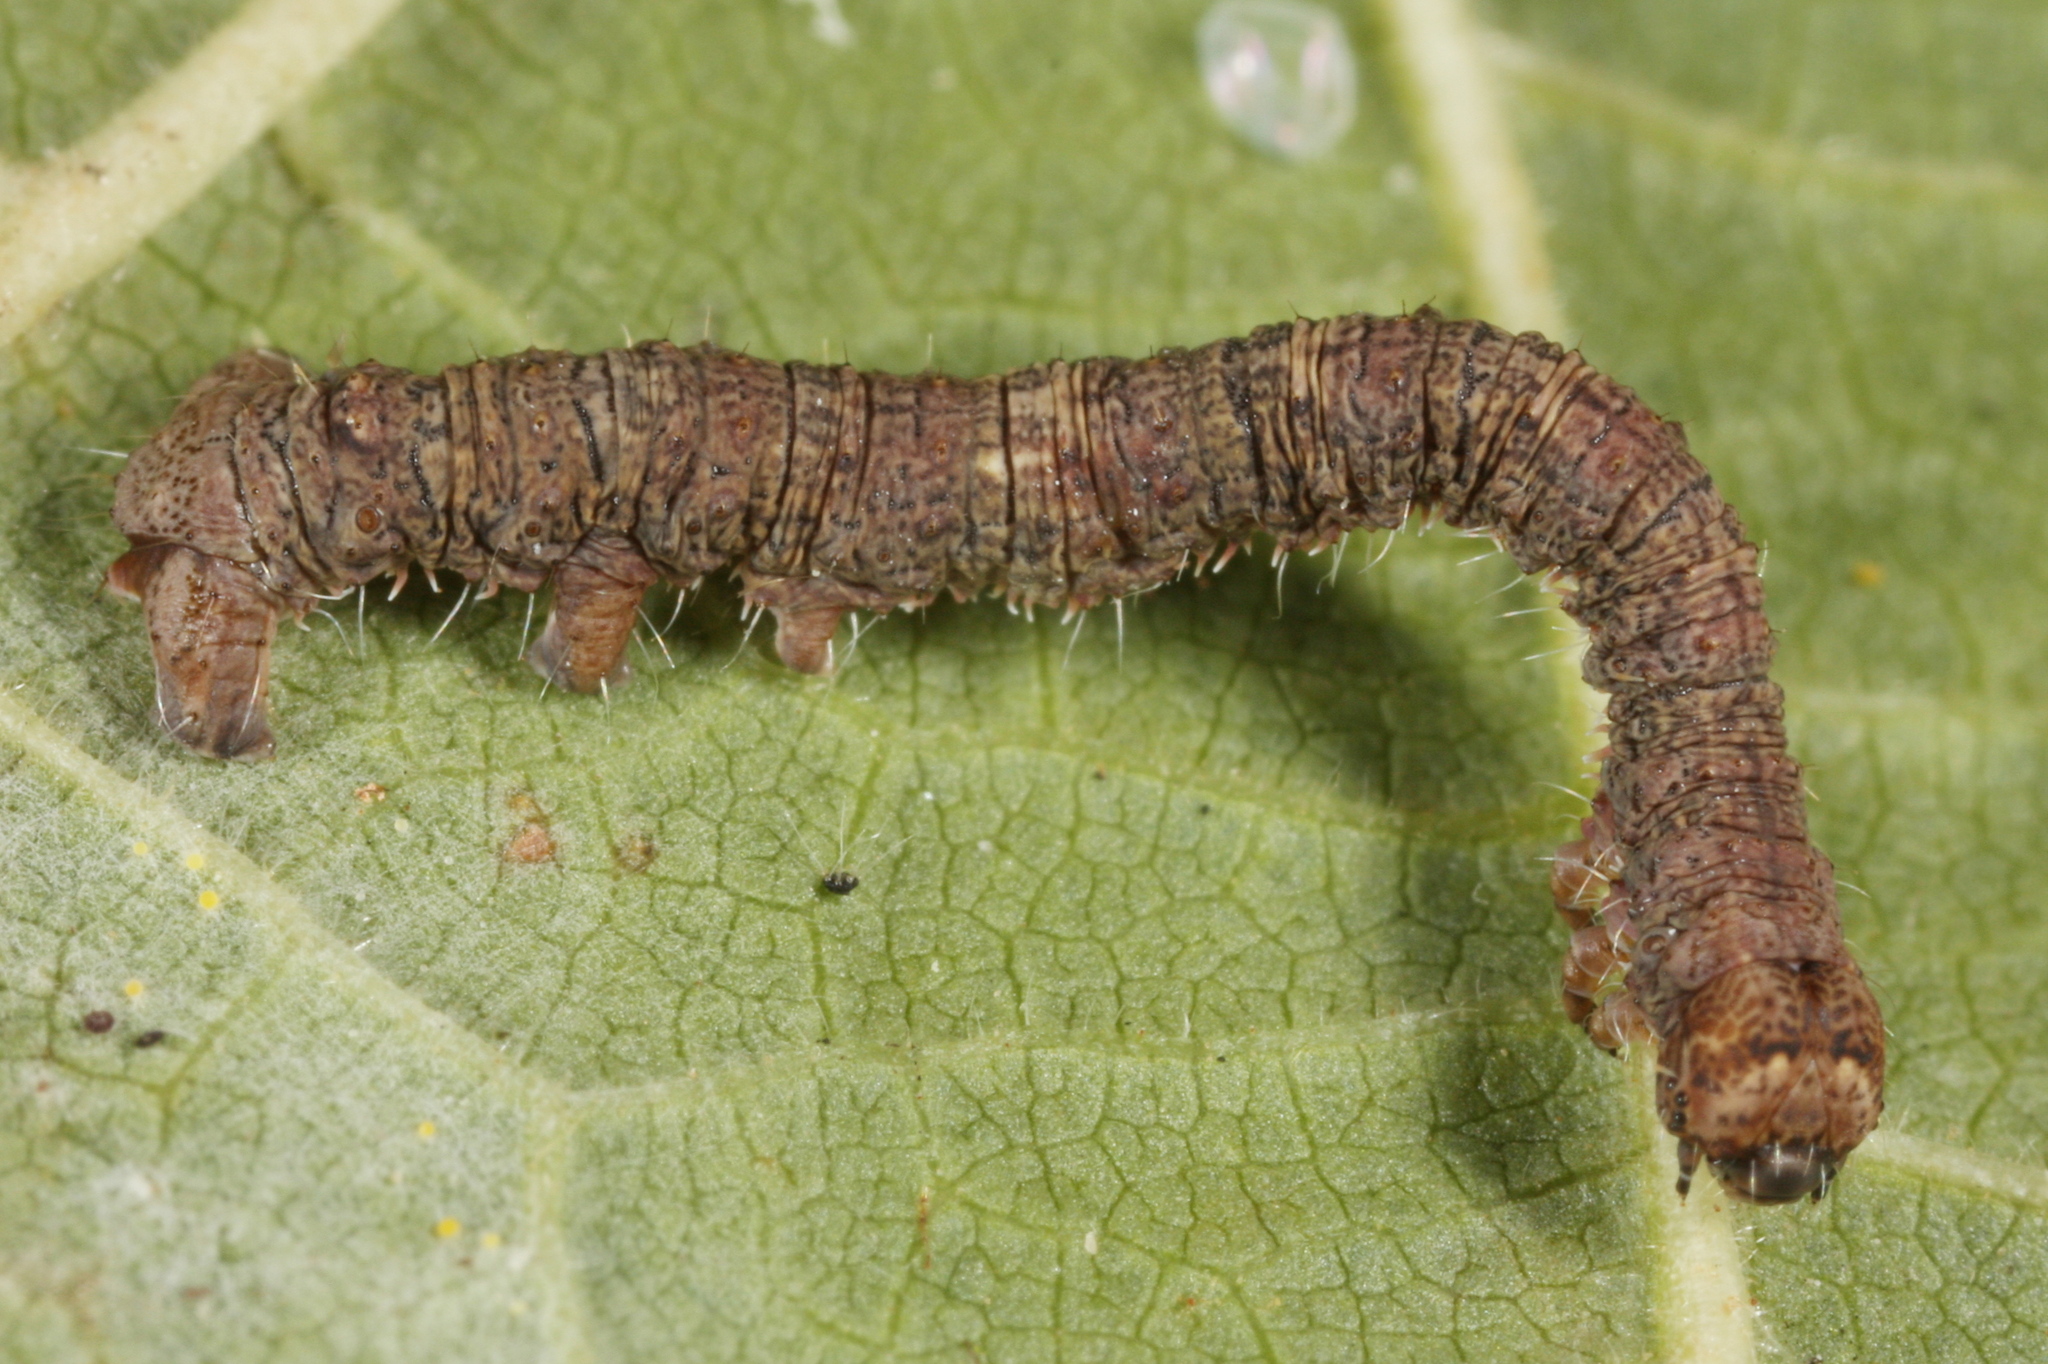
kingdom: Animalia
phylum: Arthropoda
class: Insecta
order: Lepidoptera
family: Geometridae
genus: Campaea
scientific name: Campaea margaritaria
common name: Light emerald
